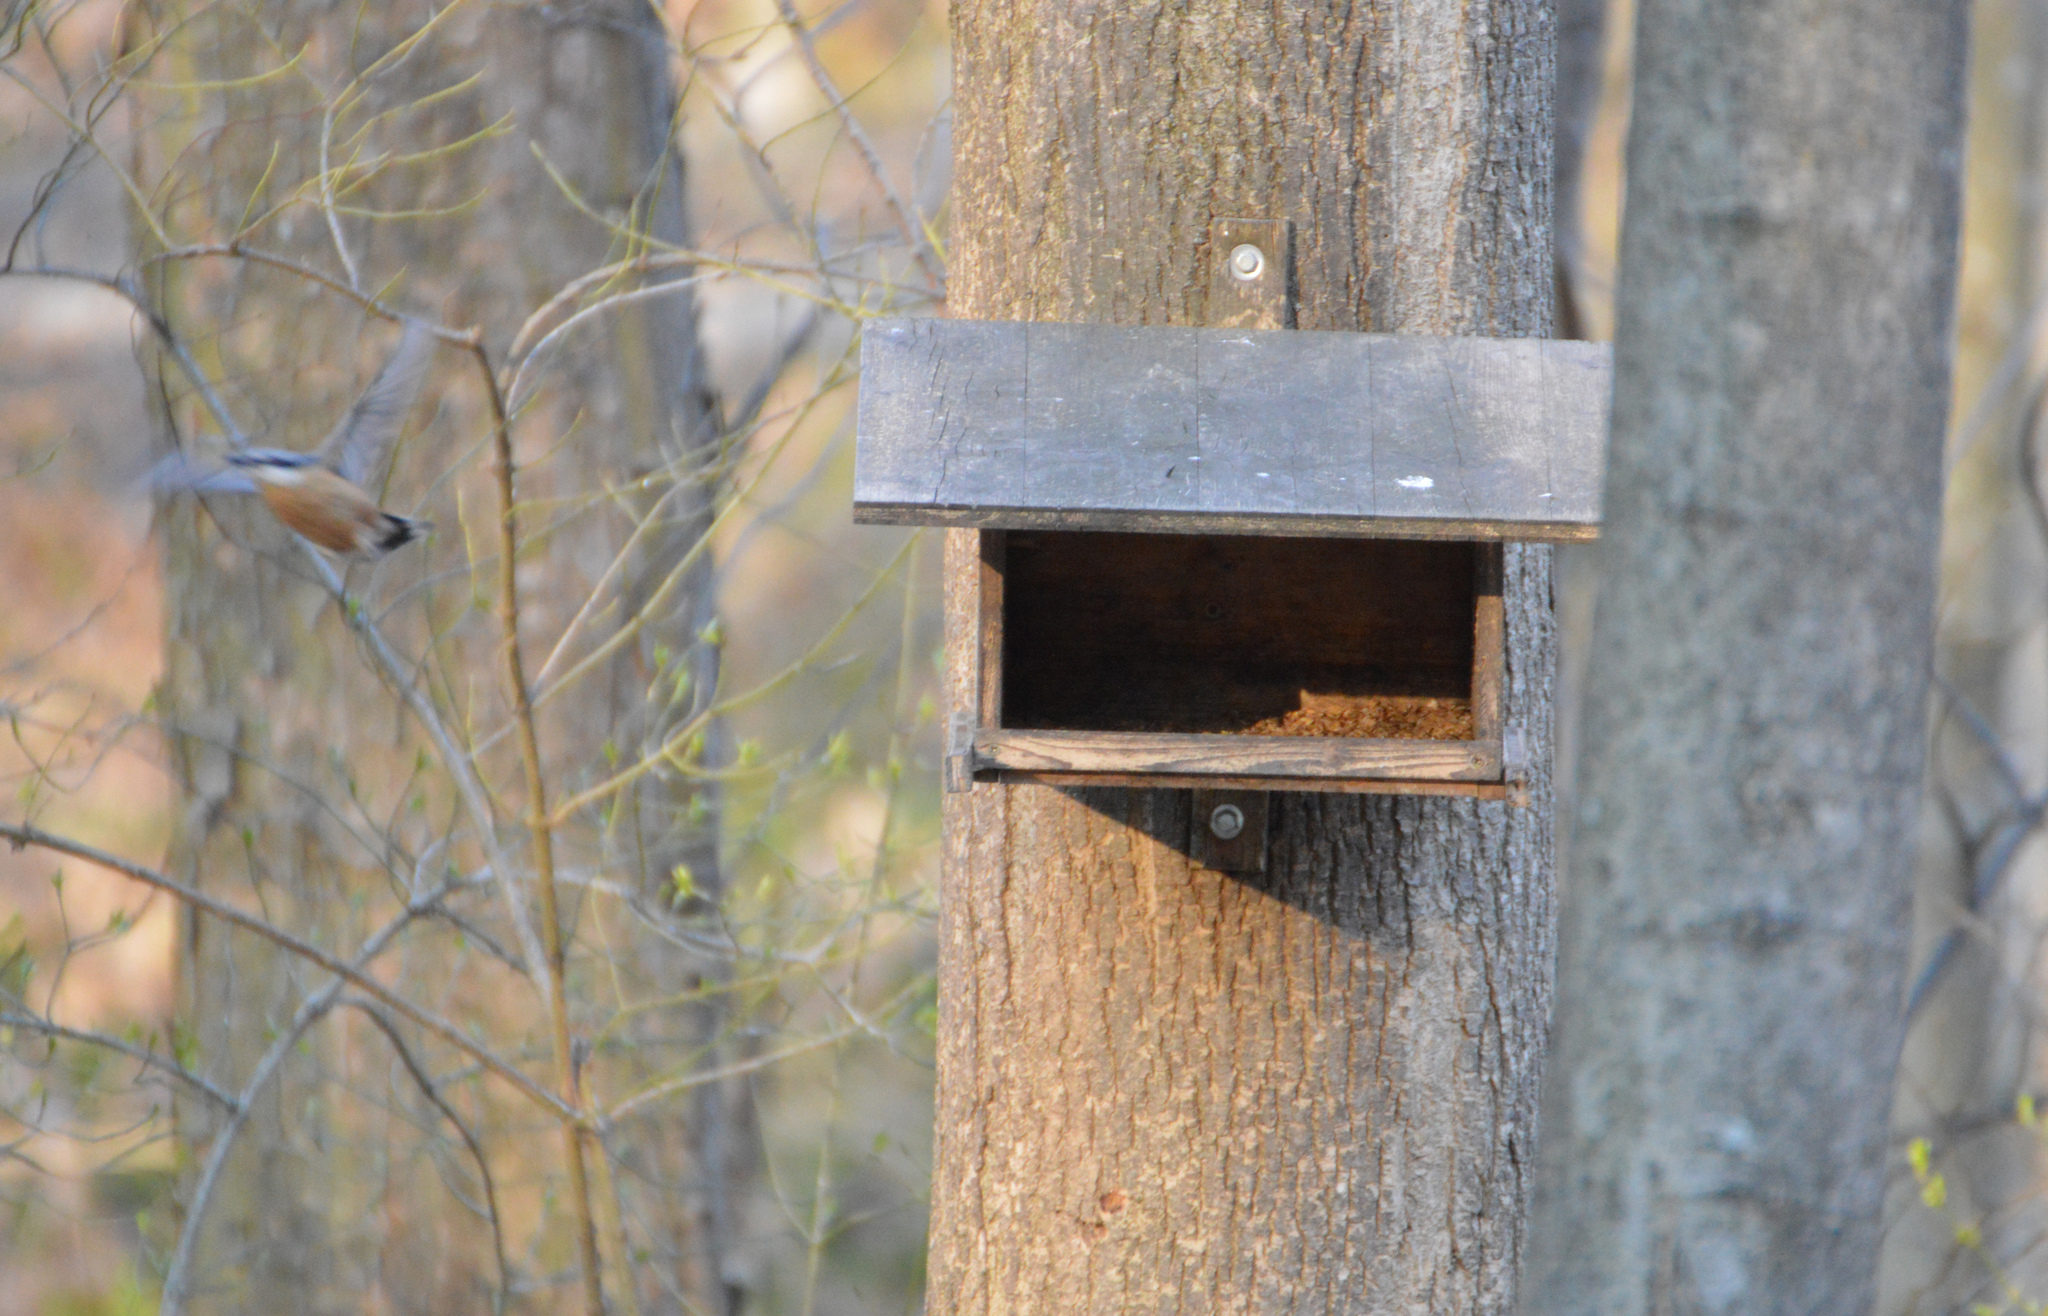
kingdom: Animalia
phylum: Chordata
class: Aves
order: Passeriformes
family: Sittidae
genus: Sitta
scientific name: Sitta europaea
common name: Eurasian nuthatch
